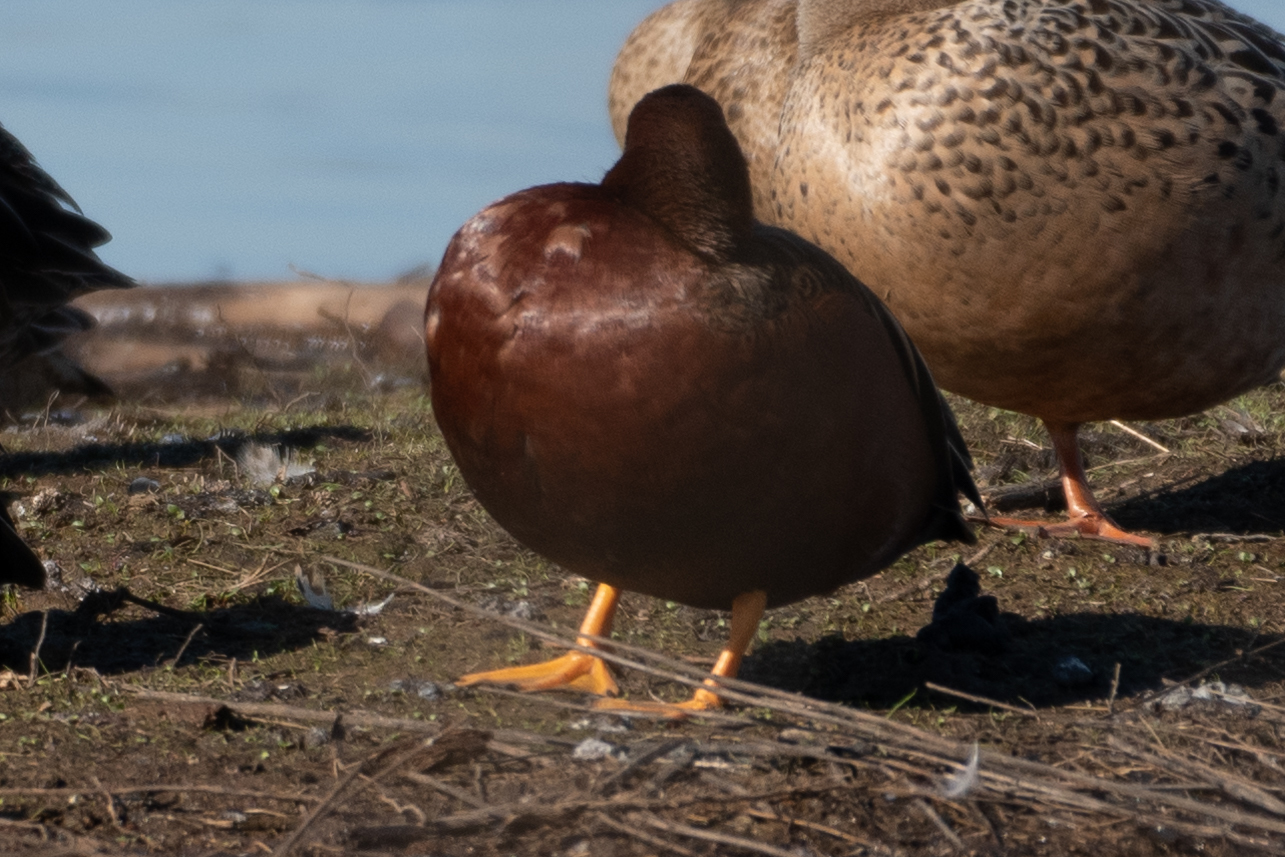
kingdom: Animalia
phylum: Chordata
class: Aves
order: Anseriformes
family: Anatidae
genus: Spatula
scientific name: Spatula cyanoptera
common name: Cinnamon teal
